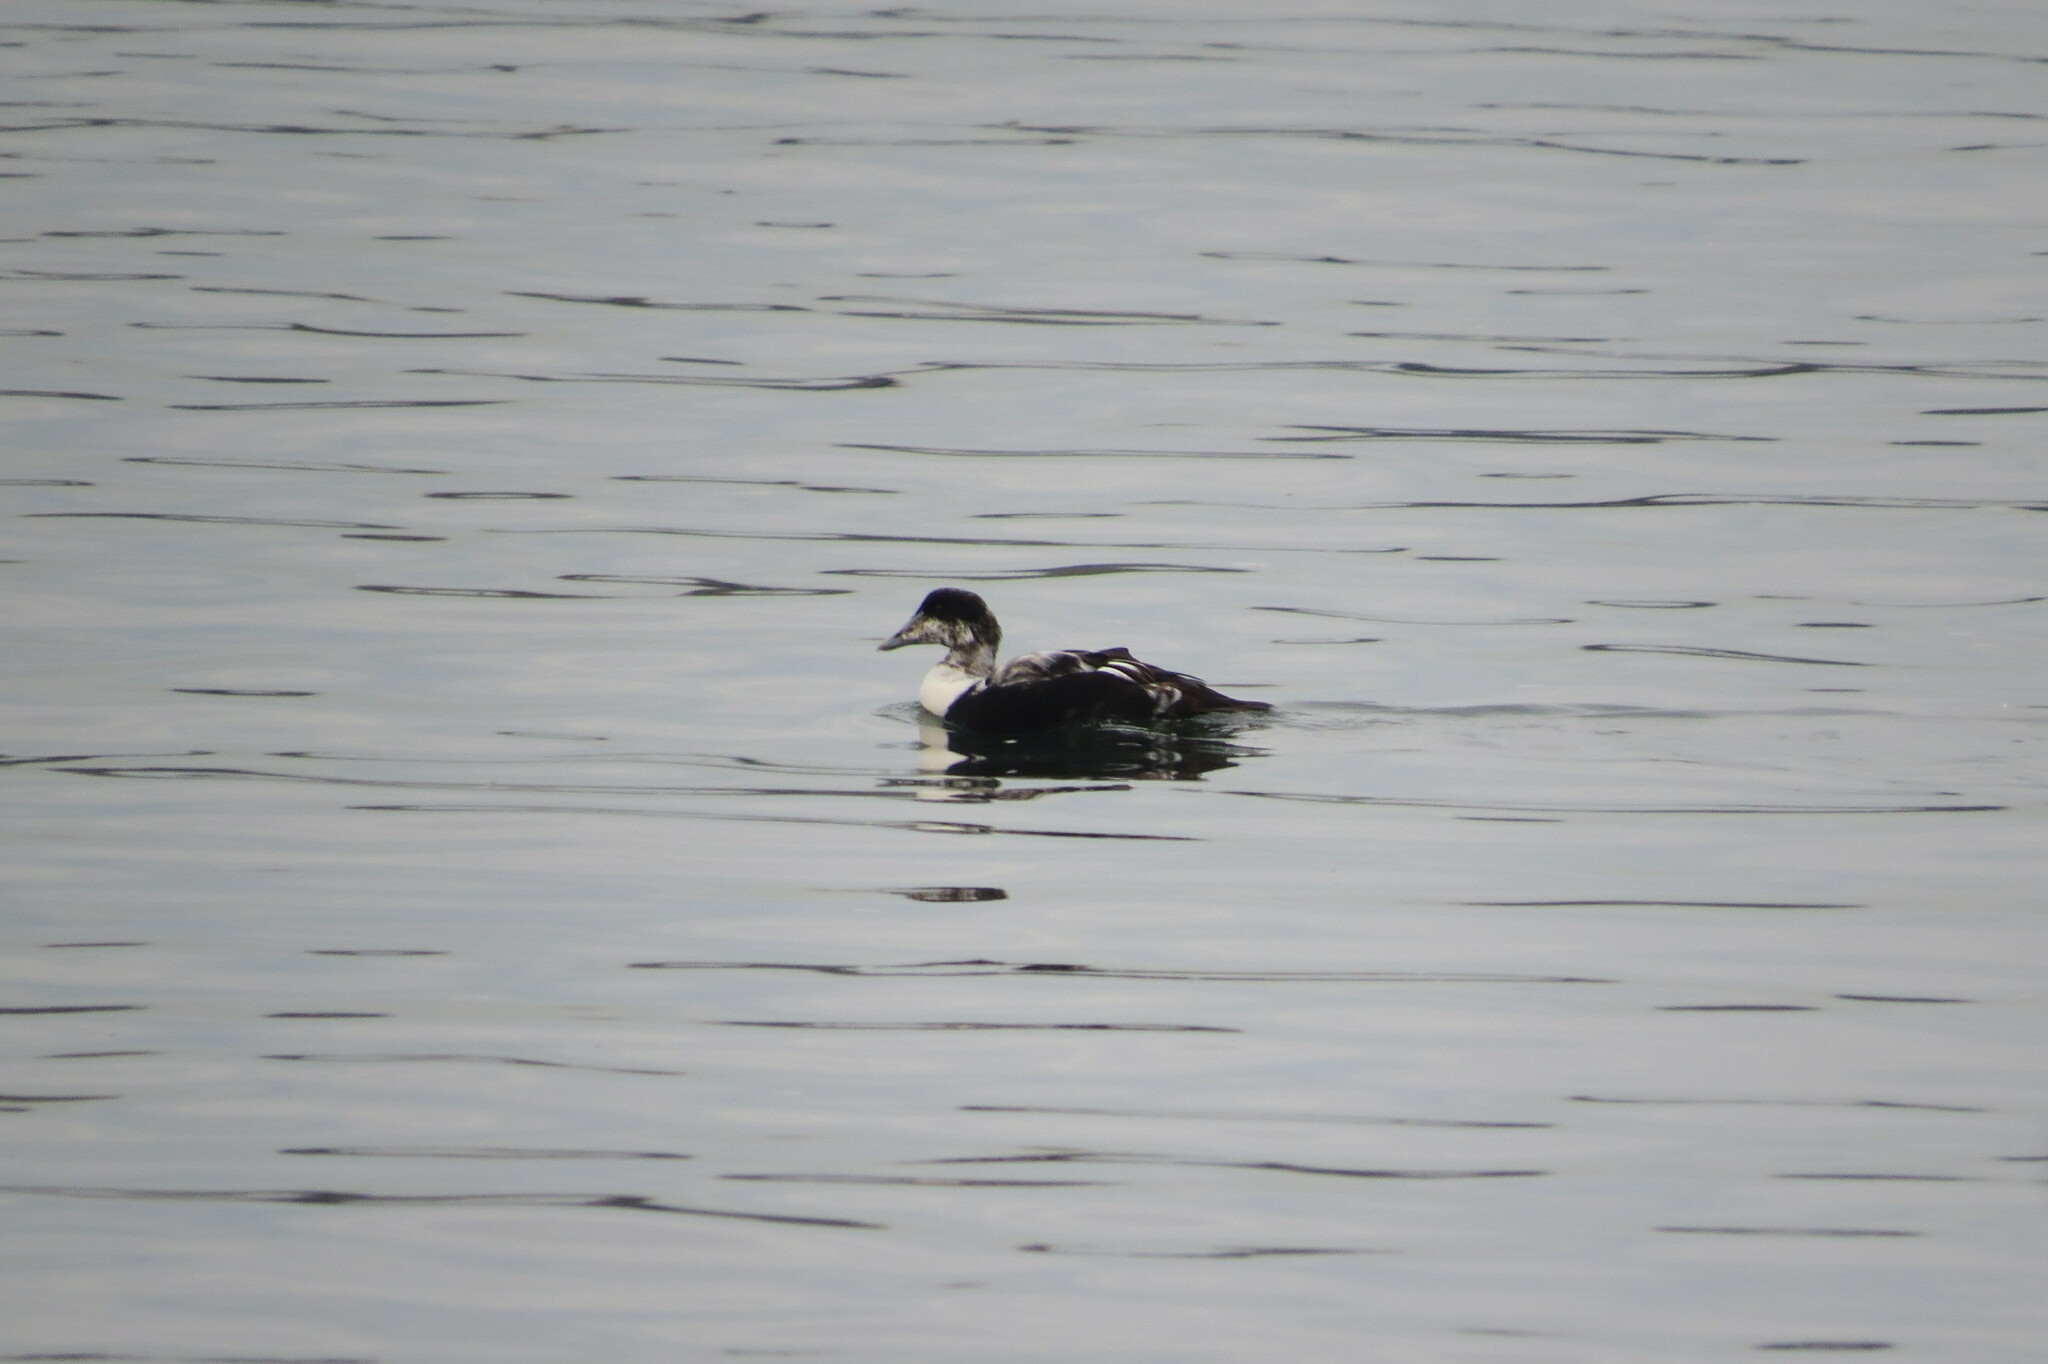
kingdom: Animalia
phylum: Chordata
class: Aves
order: Anseriformes
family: Anatidae
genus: Somateria
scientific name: Somateria mollissima
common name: Common eider
